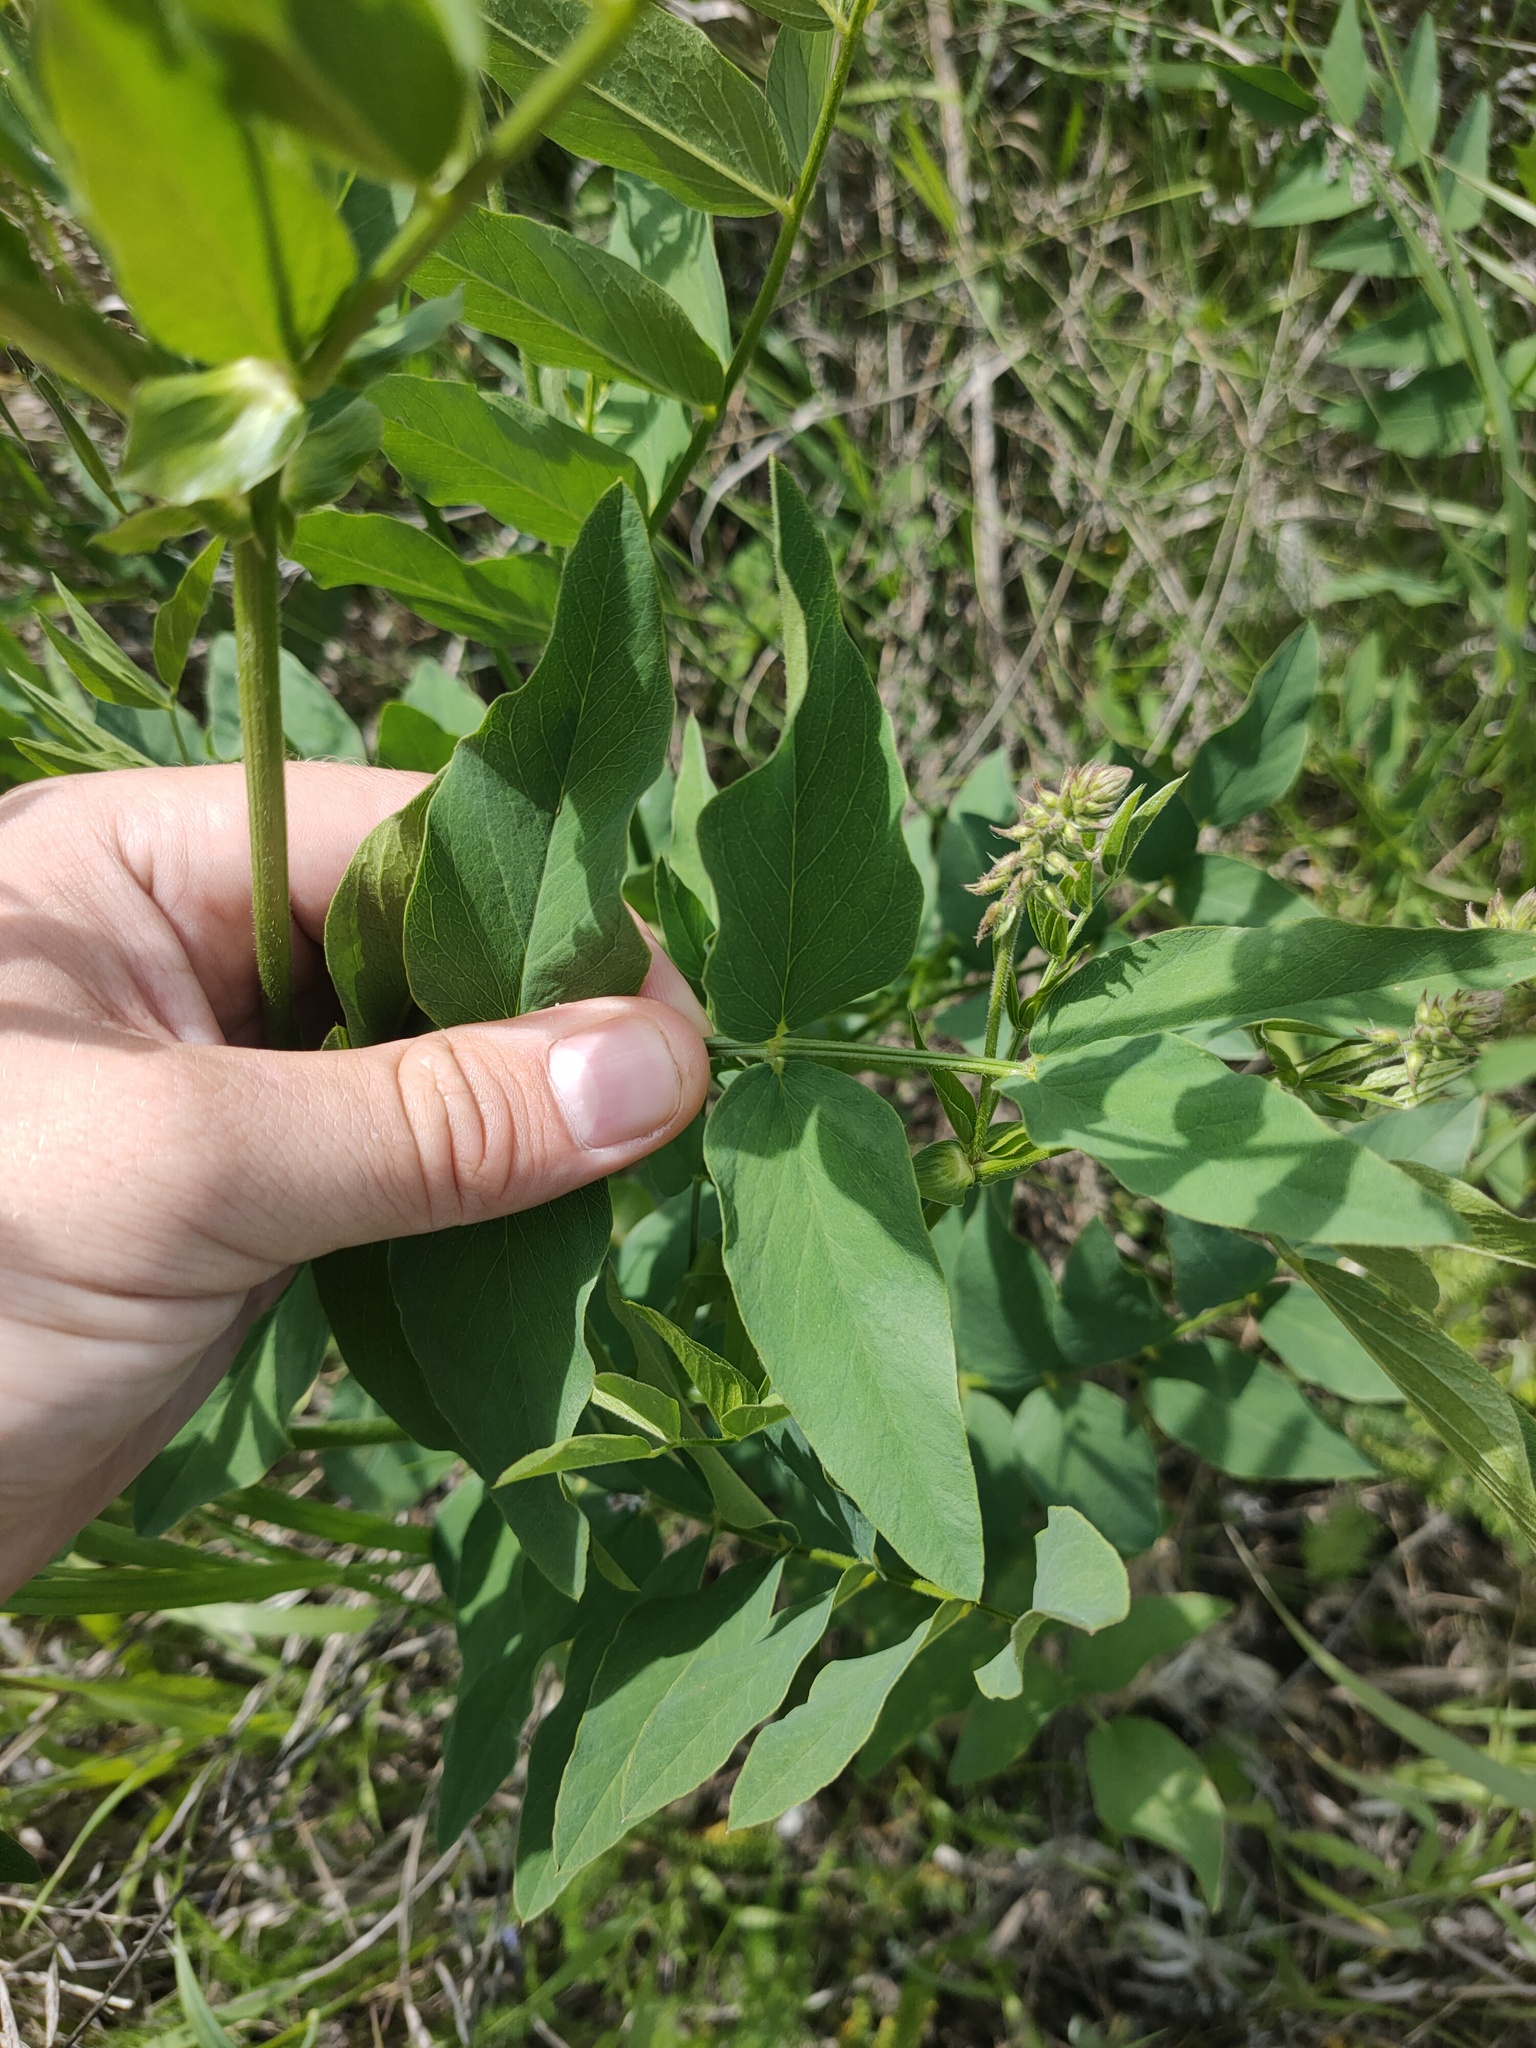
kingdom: Plantae
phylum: Tracheophyta
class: Magnoliopsida
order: Fabales
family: Fabaceae
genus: Galega
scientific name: Galega orientalis
